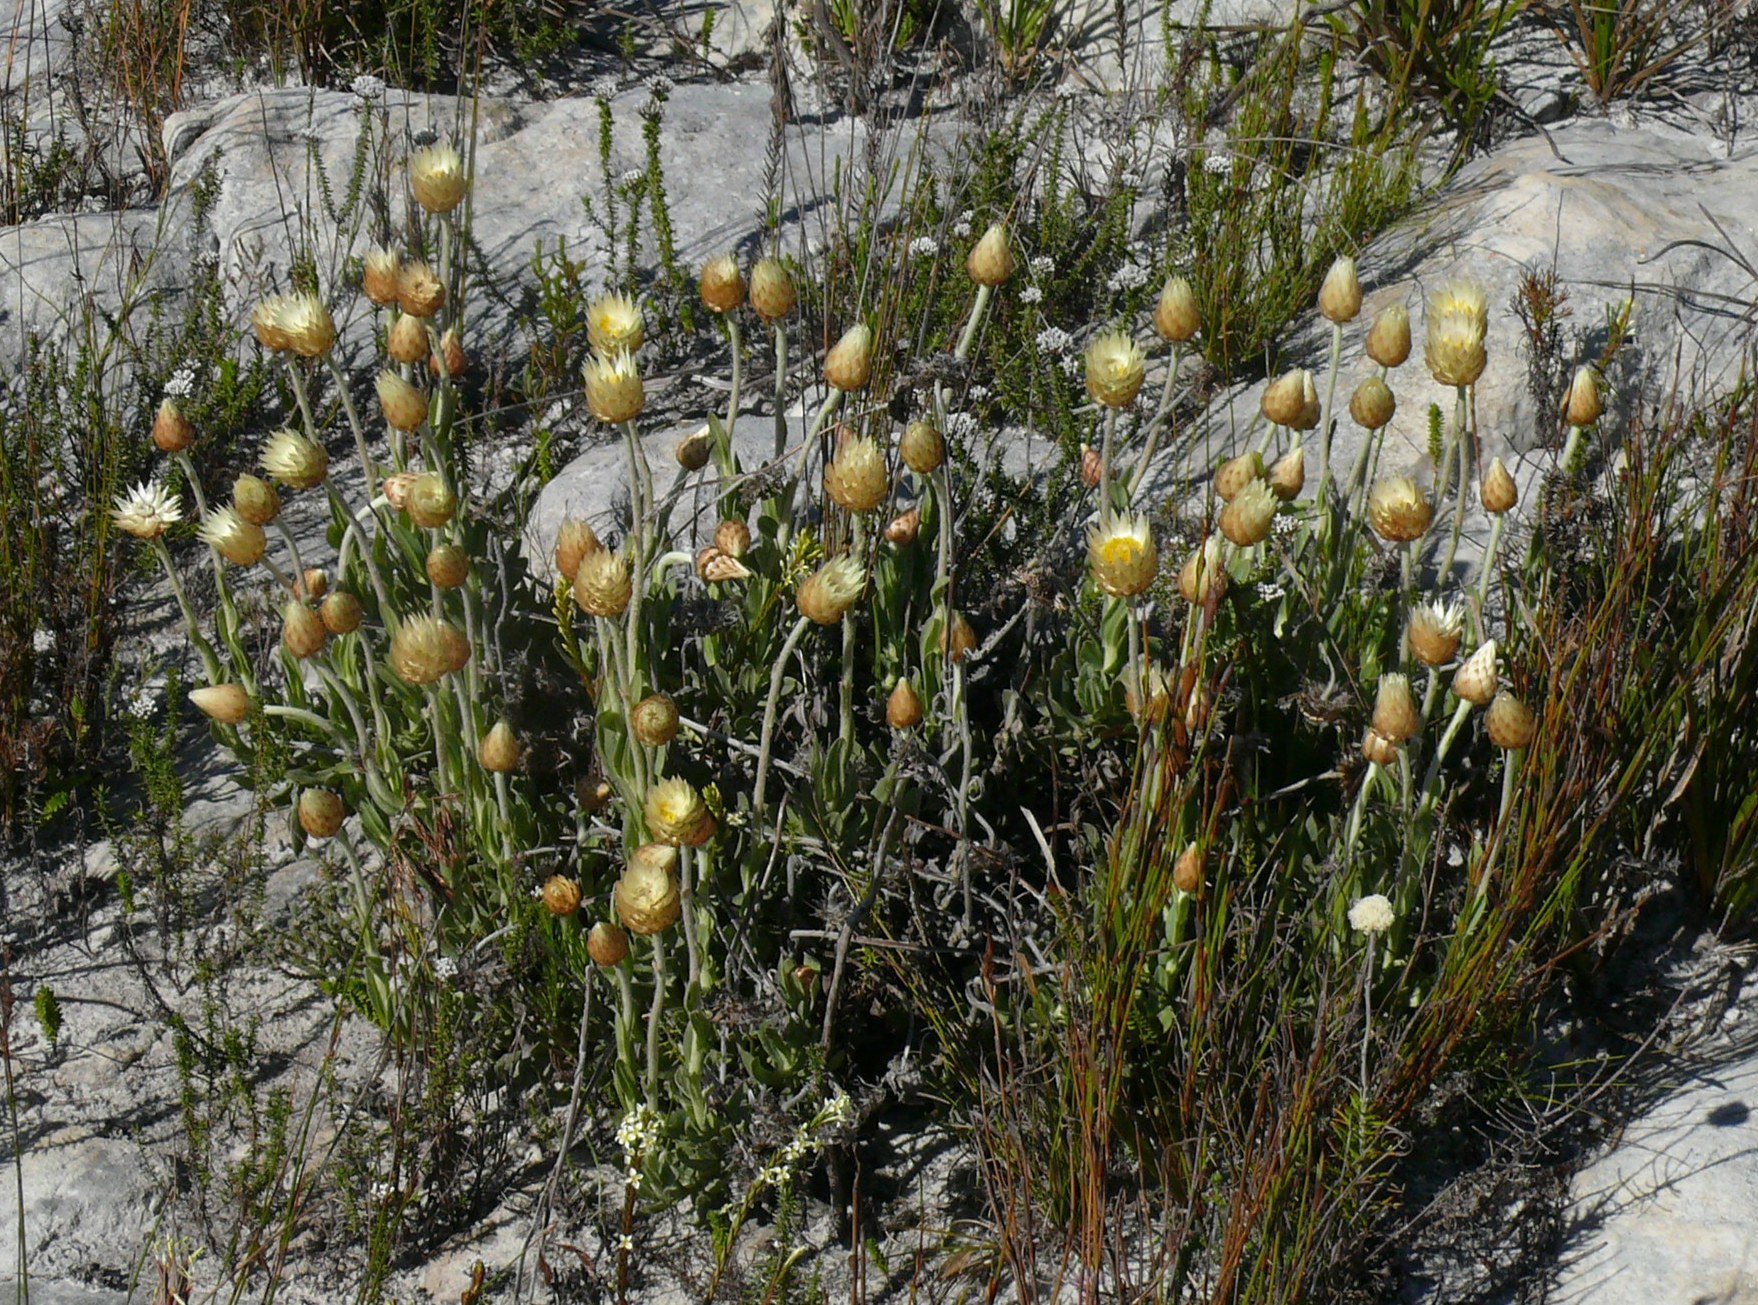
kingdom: Plantae
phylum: Tracheophyta
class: Magnoliopsida
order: Asterales
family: Asteraceae
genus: Syncarpha
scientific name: Syncarpha speciosissima
